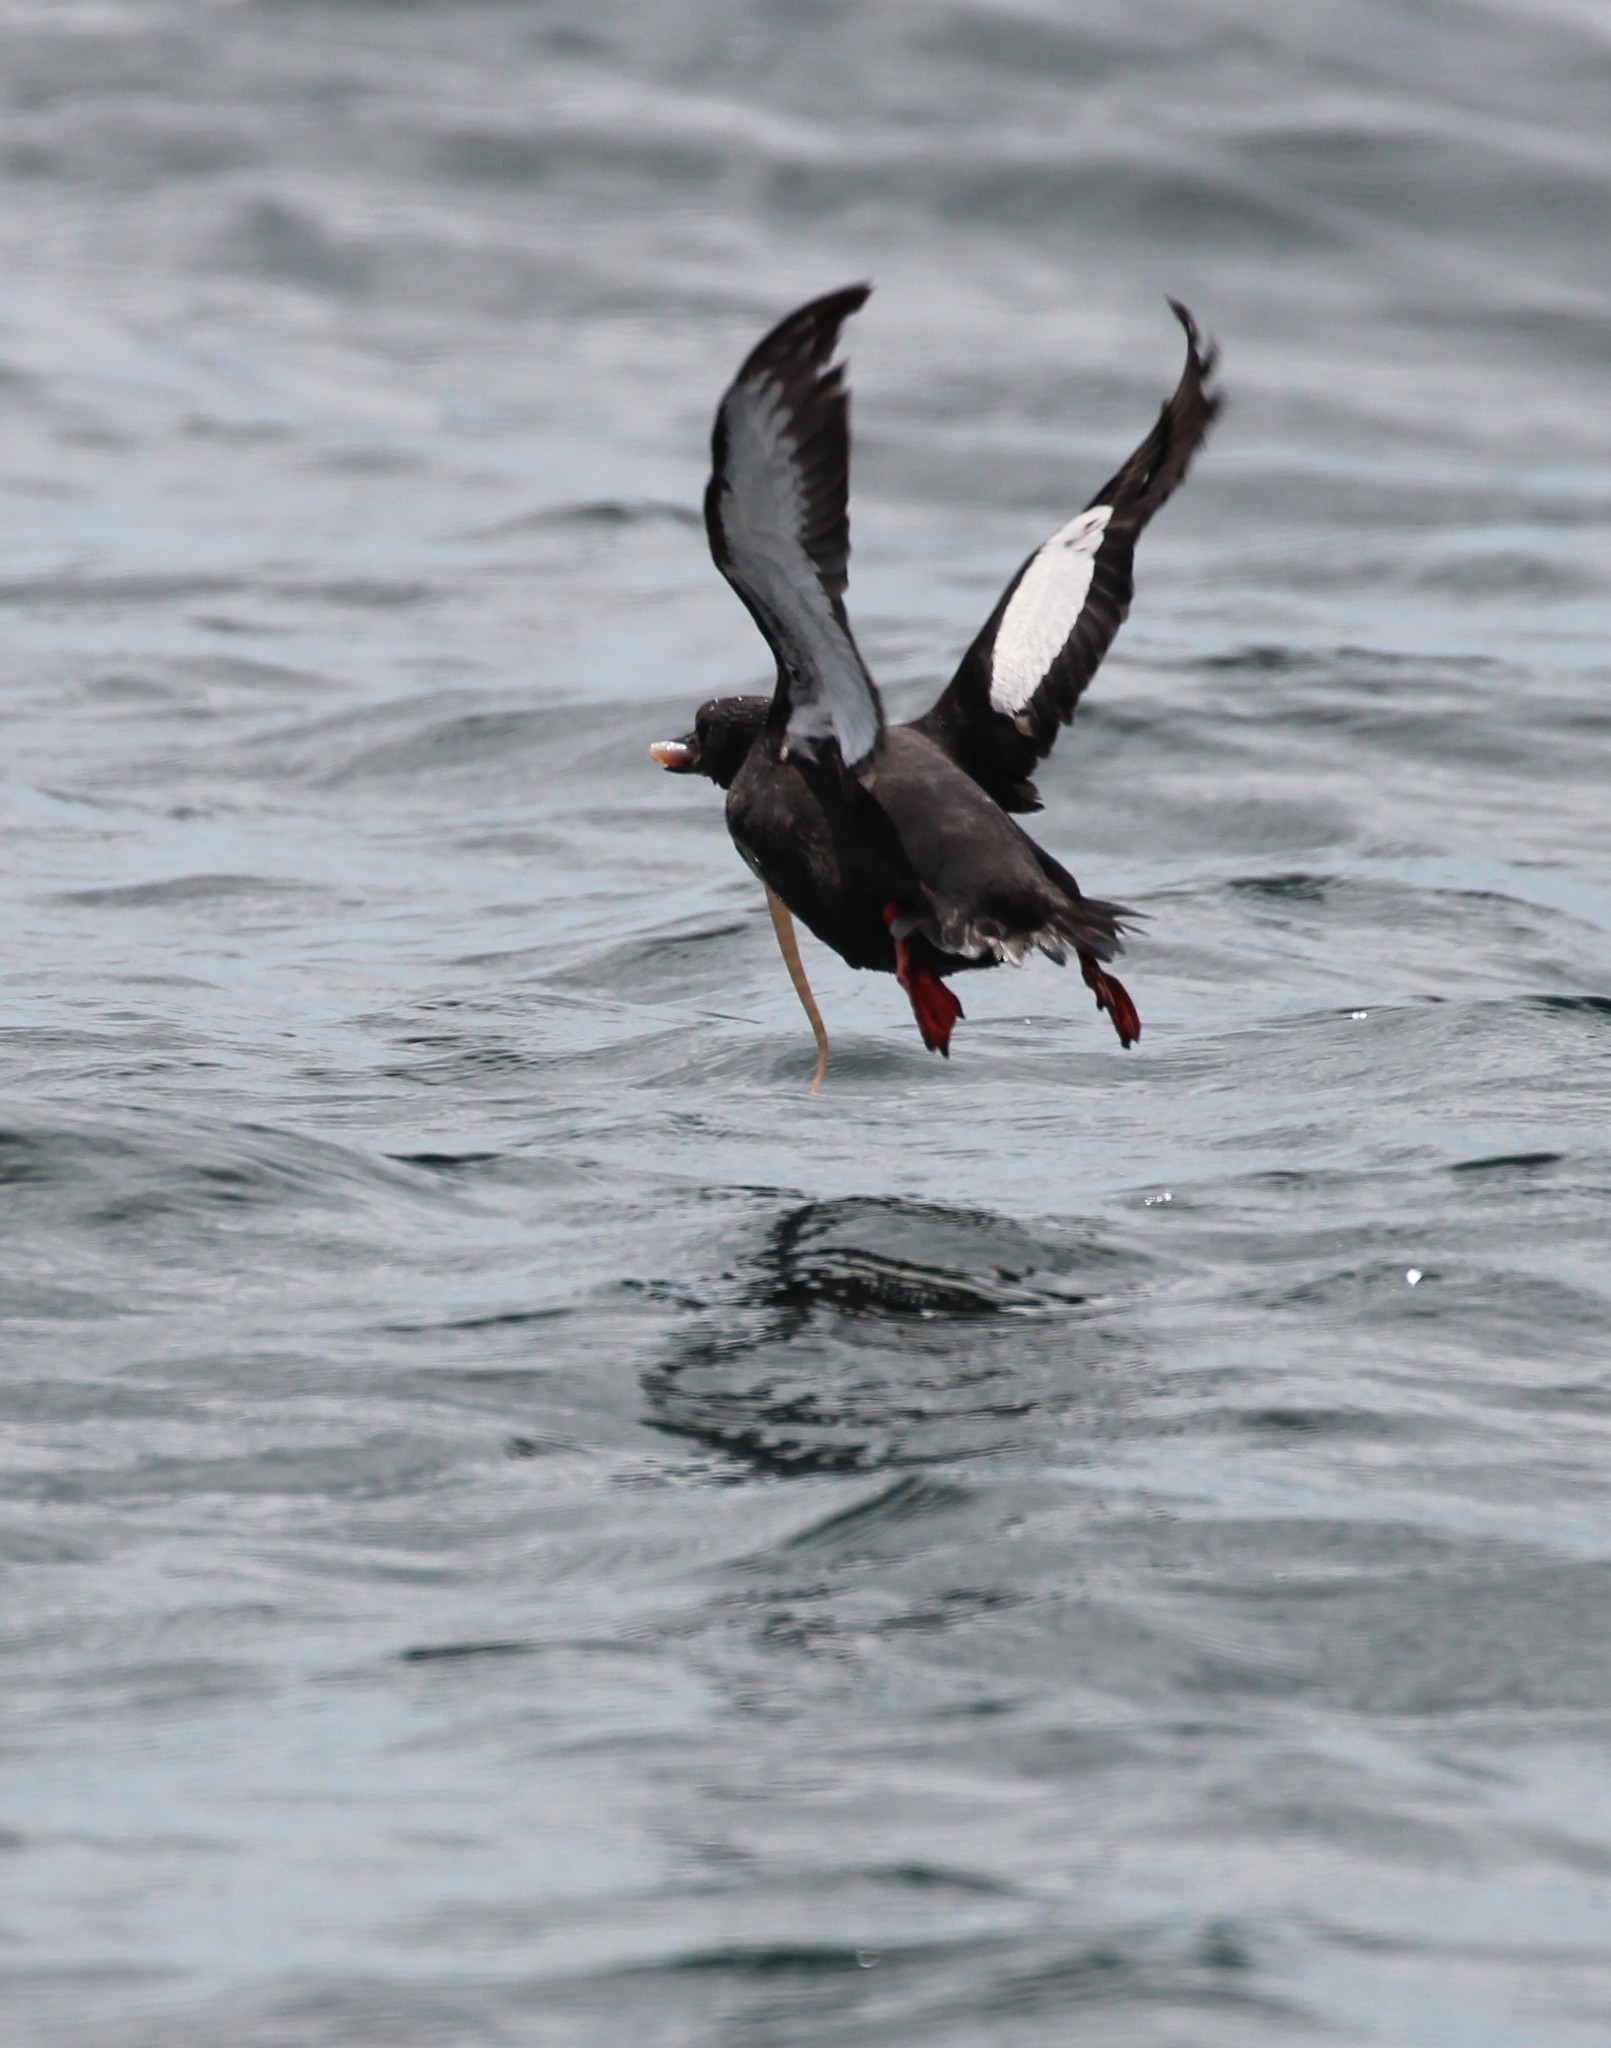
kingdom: Animalia
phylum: Chordata
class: Aves
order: Charadriiformes
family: Alcidae
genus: Cepphus
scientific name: Cepphus grylle
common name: Black guillemot
